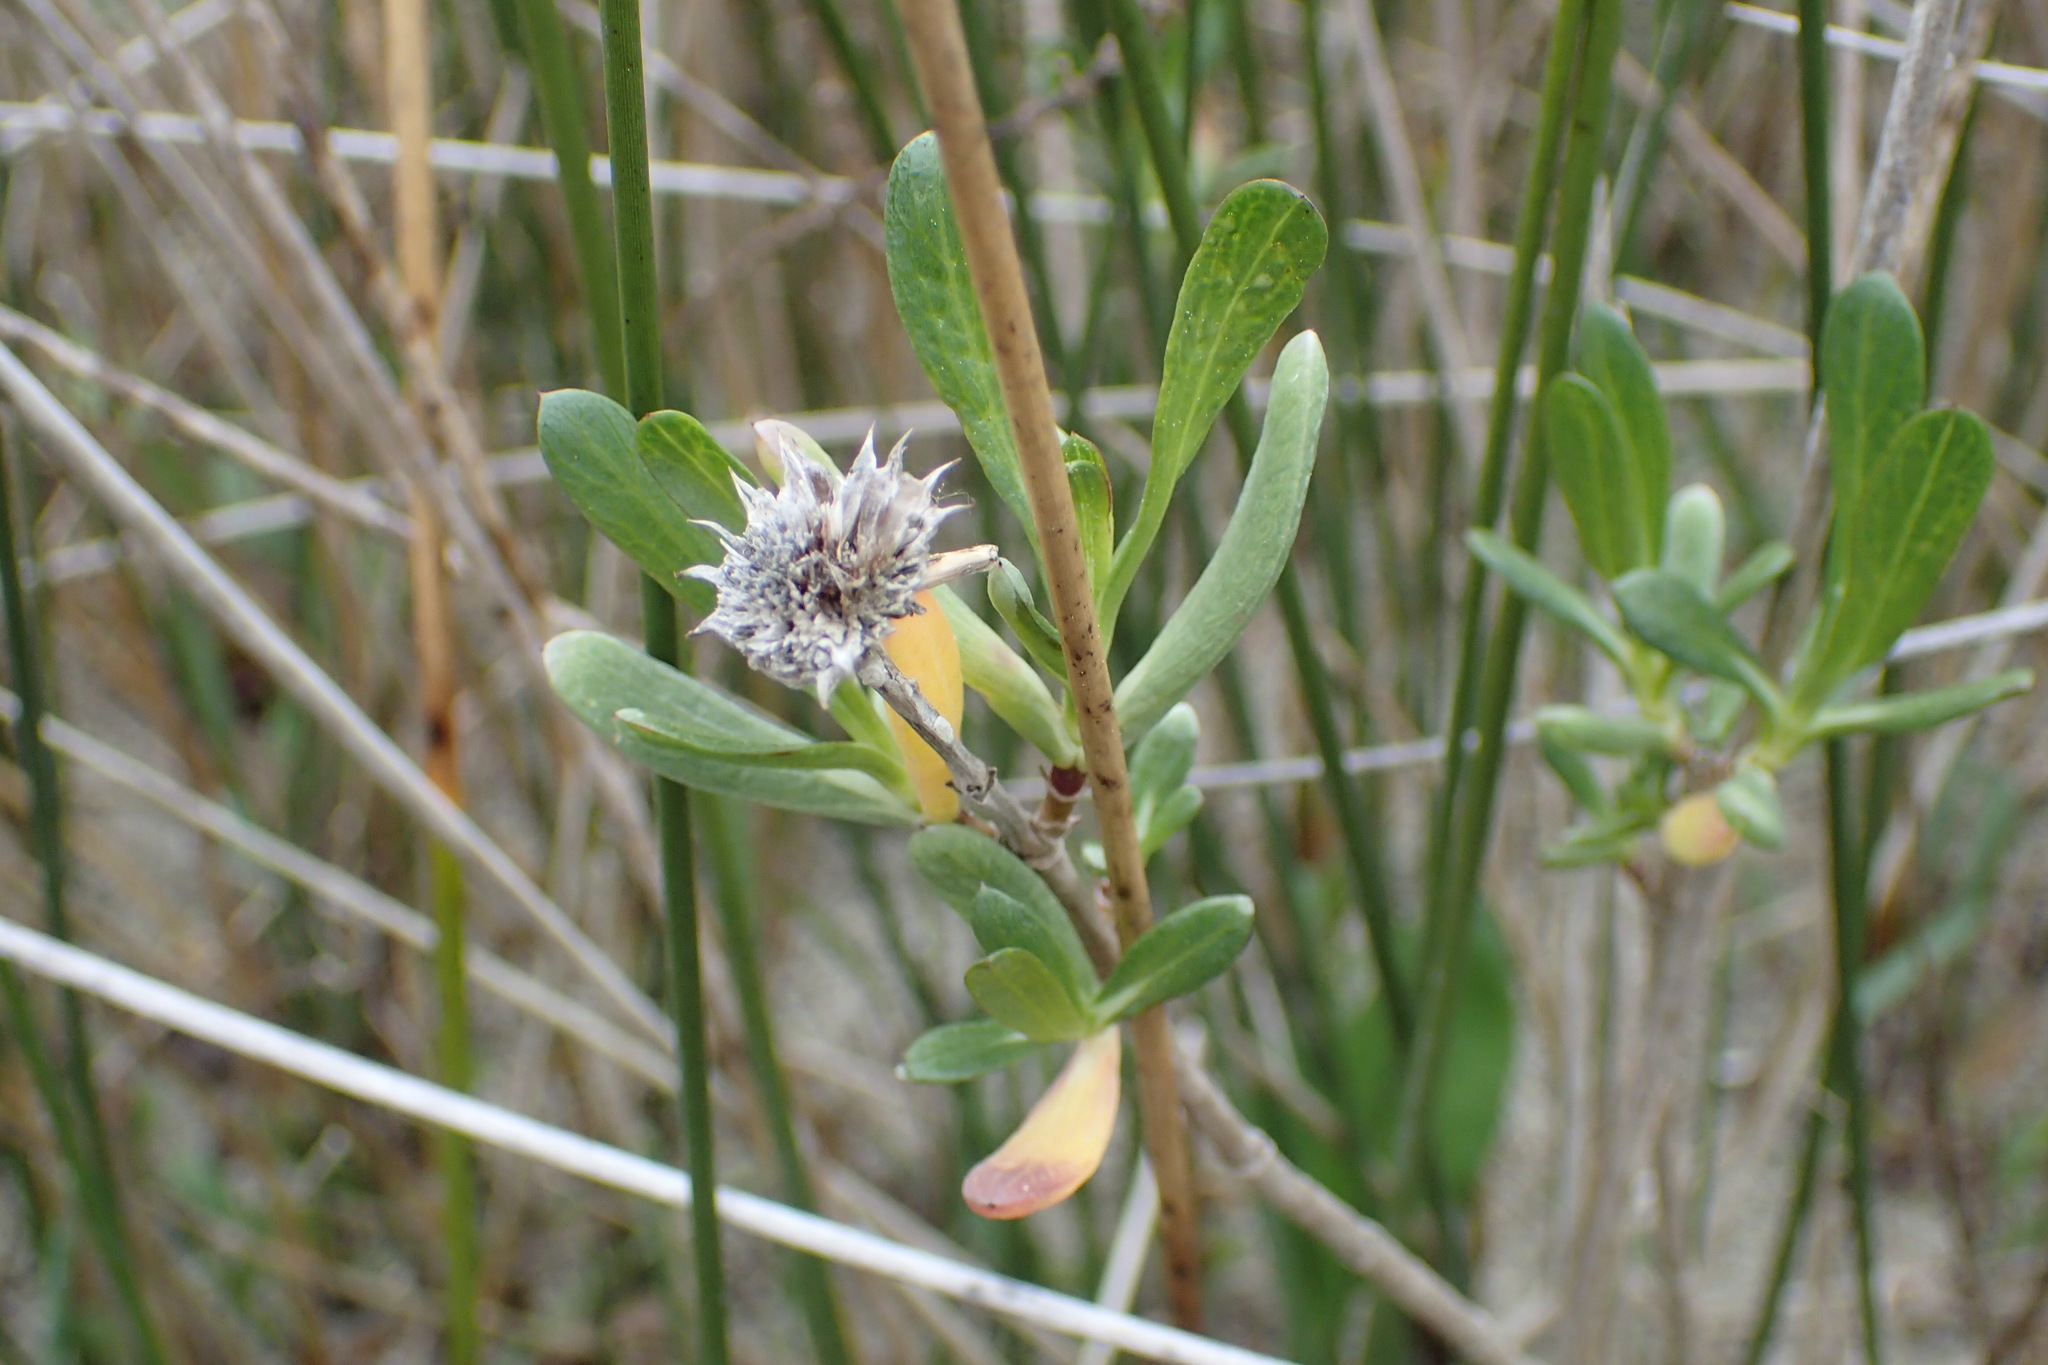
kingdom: Plantae
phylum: Tracheophyta
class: Magnoliopsida
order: Asterales
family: Asteraceae
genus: Borrichia
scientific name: Borrichia frutescens
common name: Sea oxeye
